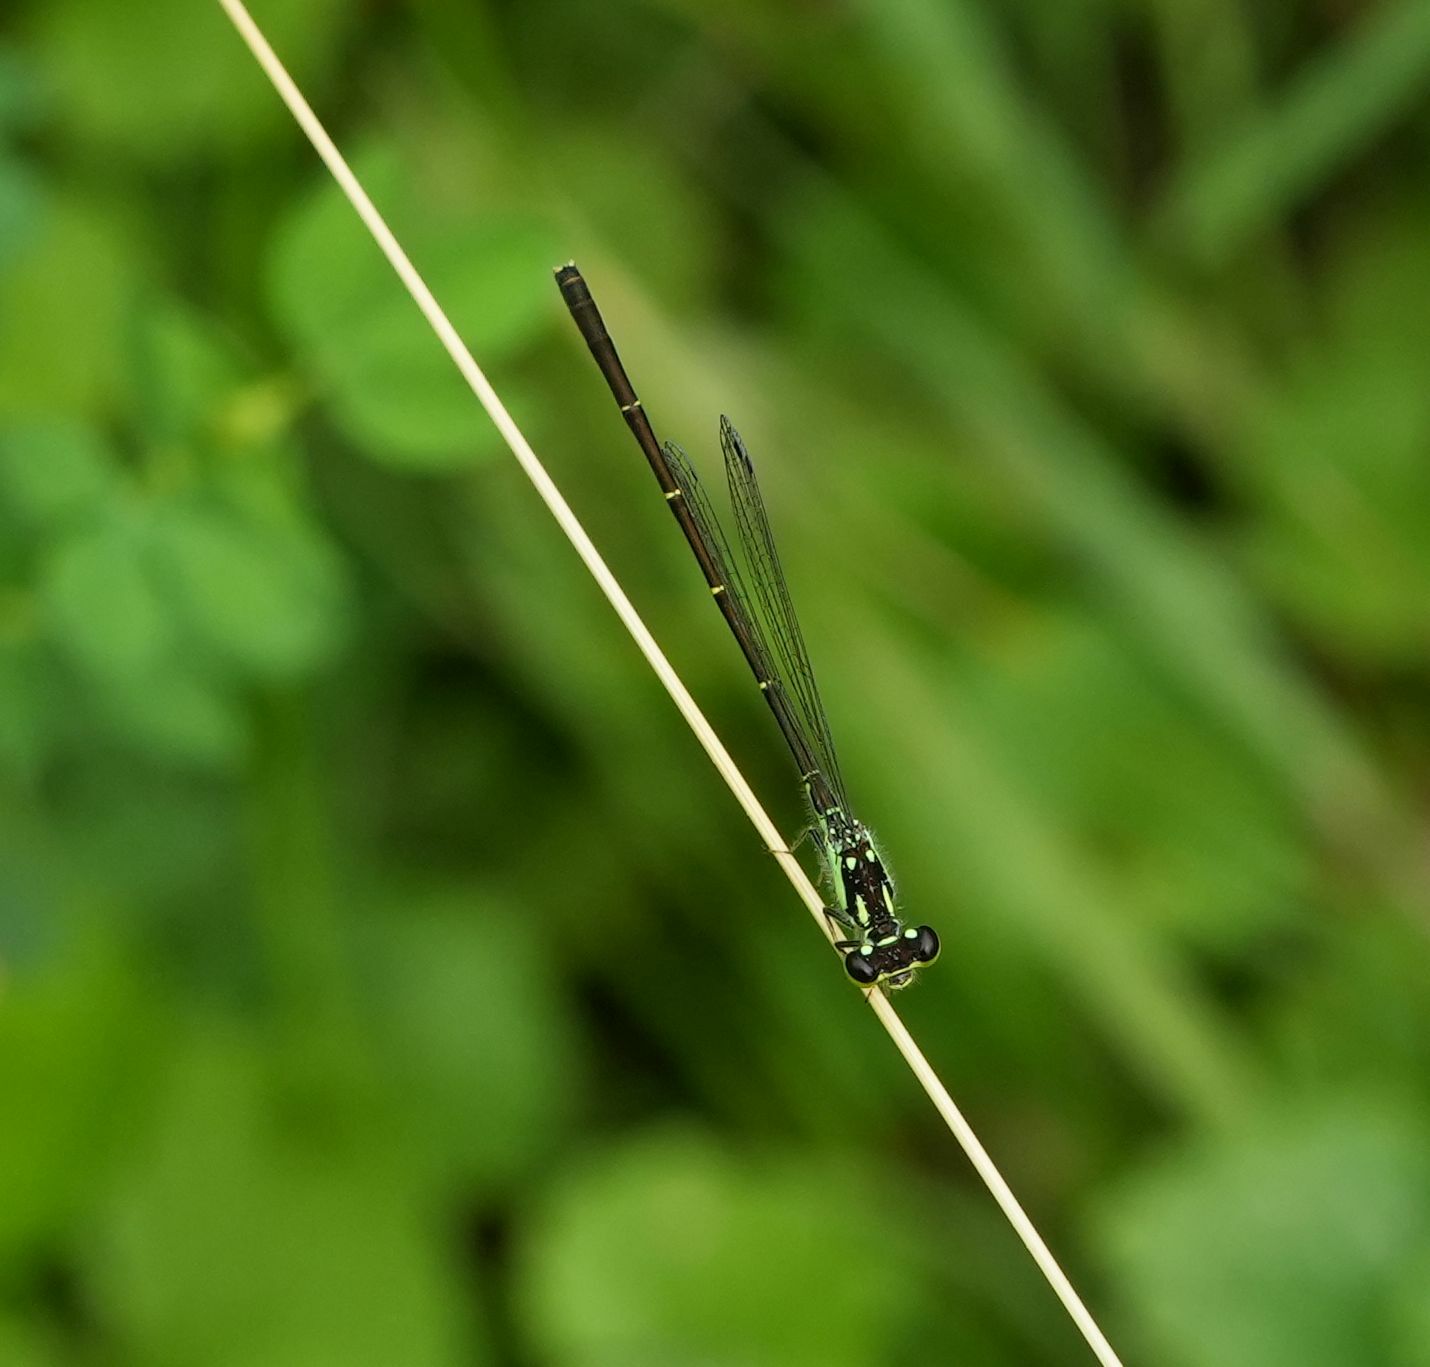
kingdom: Animalia
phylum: Arthropoda
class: Insecta
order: Odonata
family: Coenagrionidae
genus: Ischnura
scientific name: Ischnura posita
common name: Fragile forktail
